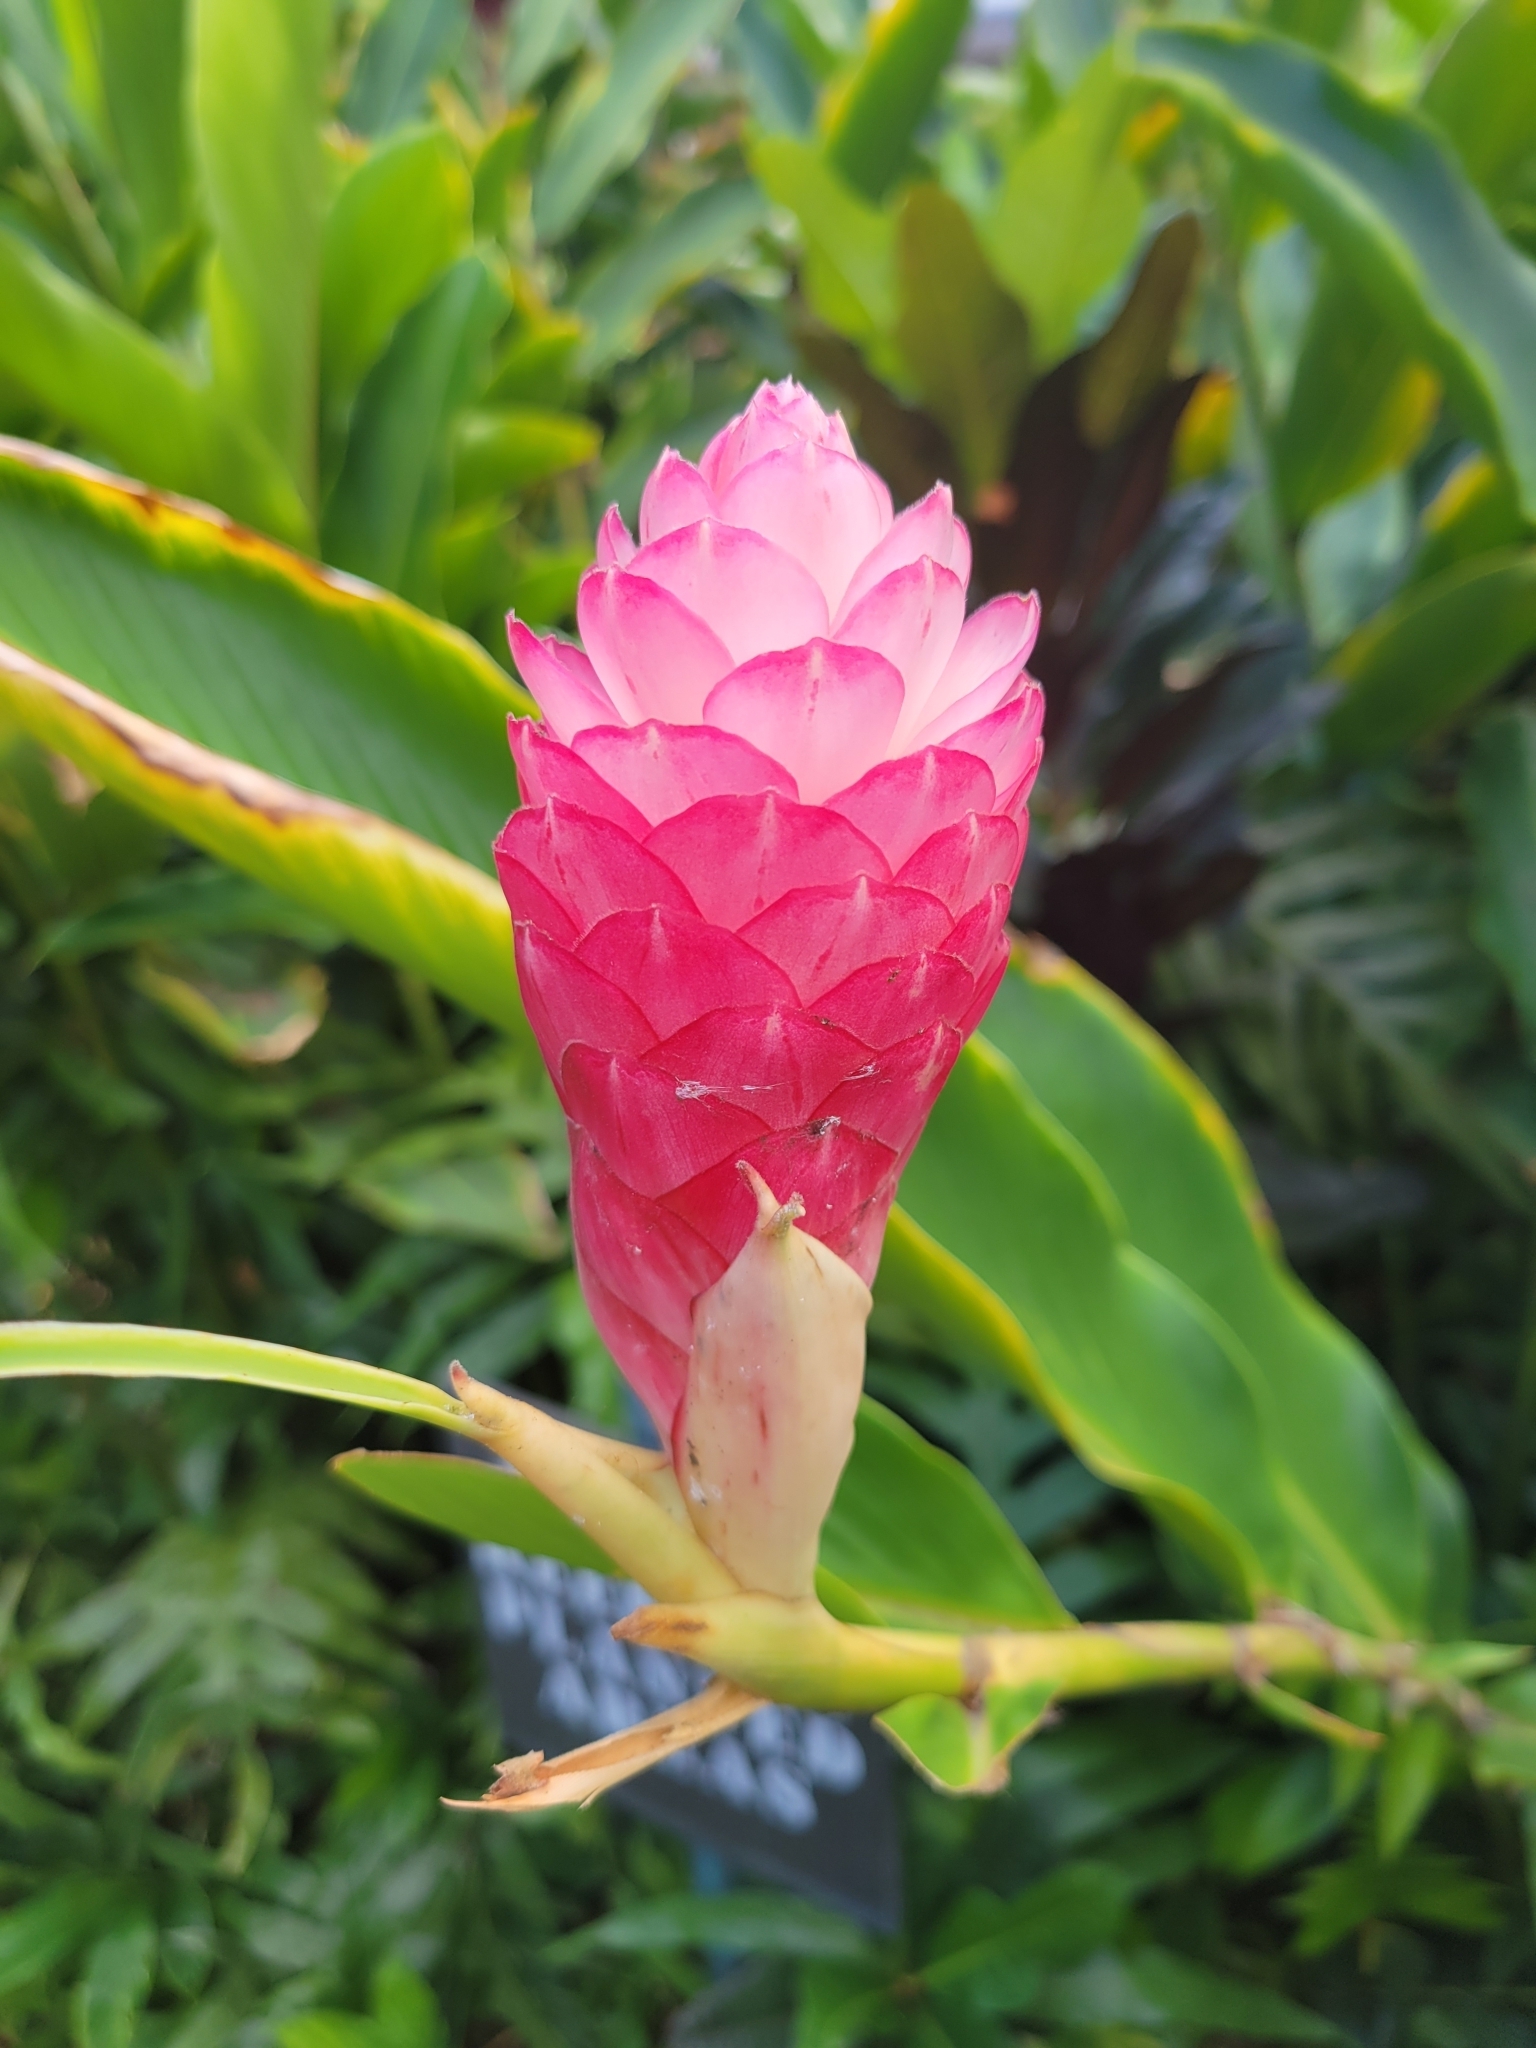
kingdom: Plantae
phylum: Tracheophyta
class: Liliopsida
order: Zingiberales
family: Zingiberaceae
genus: Alpinia
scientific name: Alpinia purpurata
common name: Red ginger
